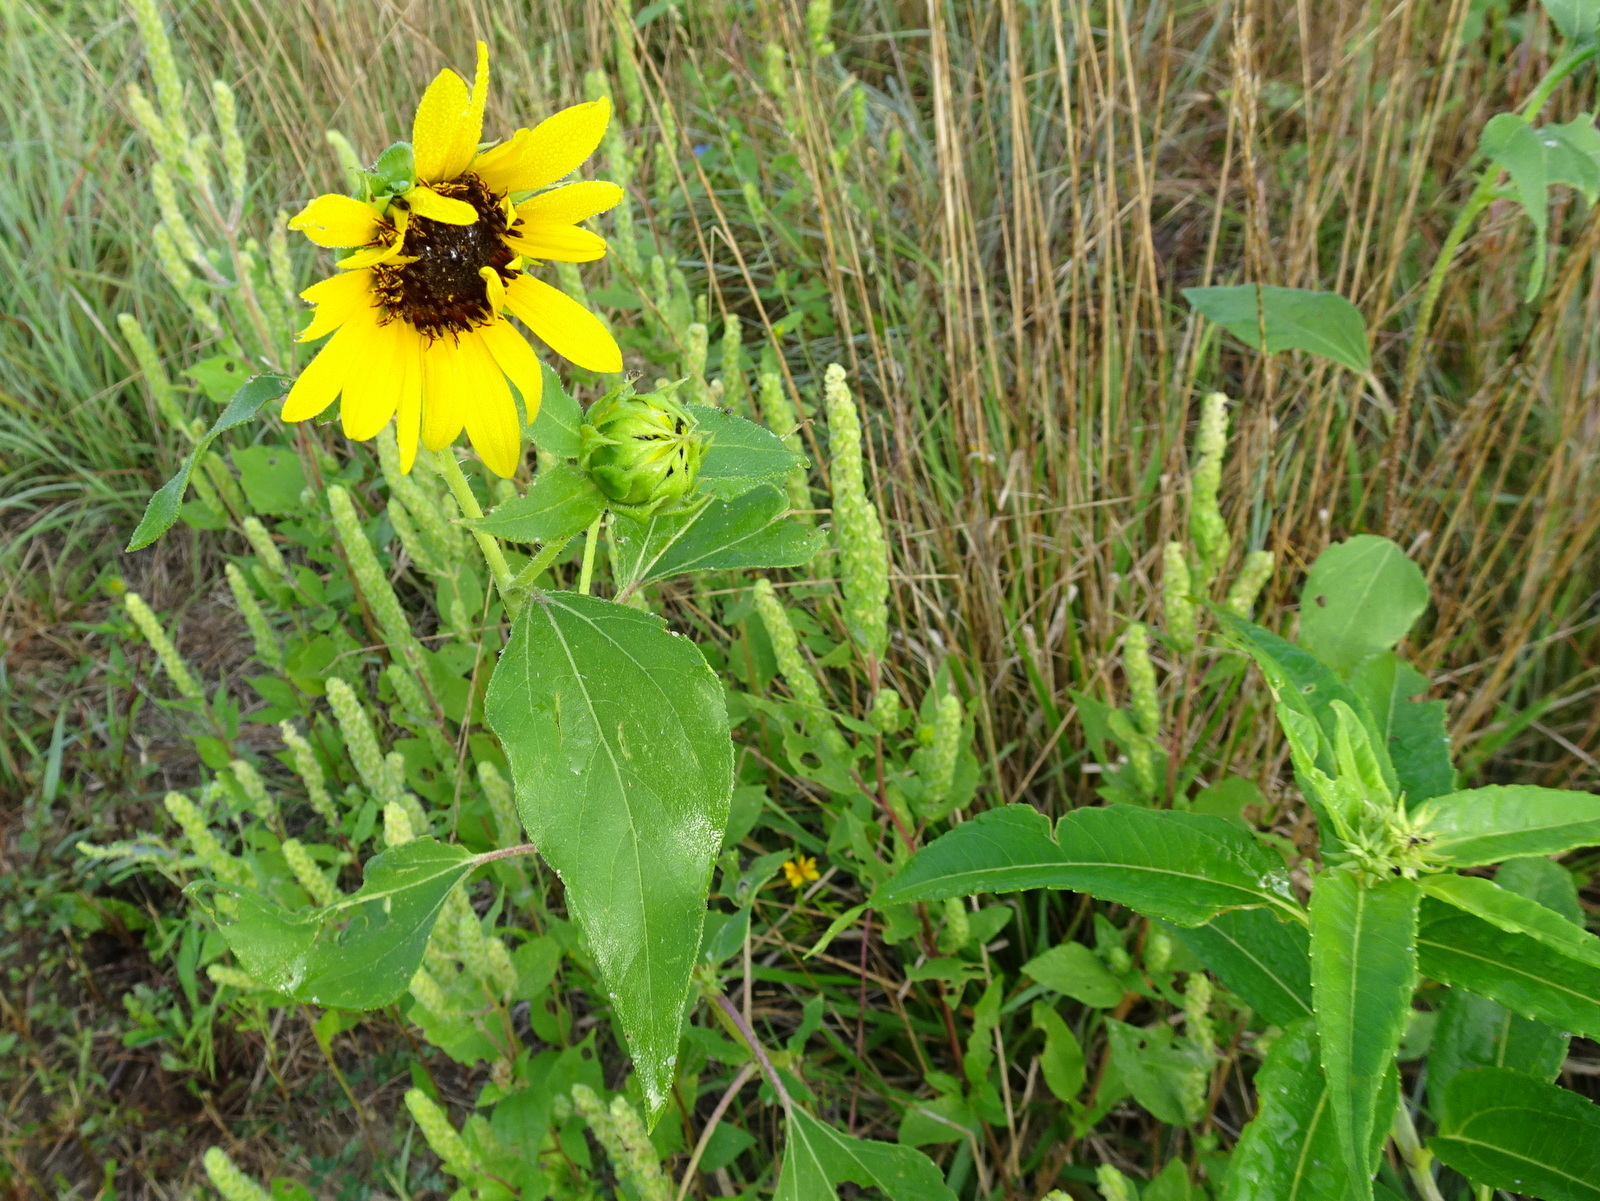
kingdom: Plantae
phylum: Tracheophyta
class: Magnoliopsida
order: Asterales
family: Asteraceae
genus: Helianthus
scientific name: Helianthus annuus
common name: Sunflower
